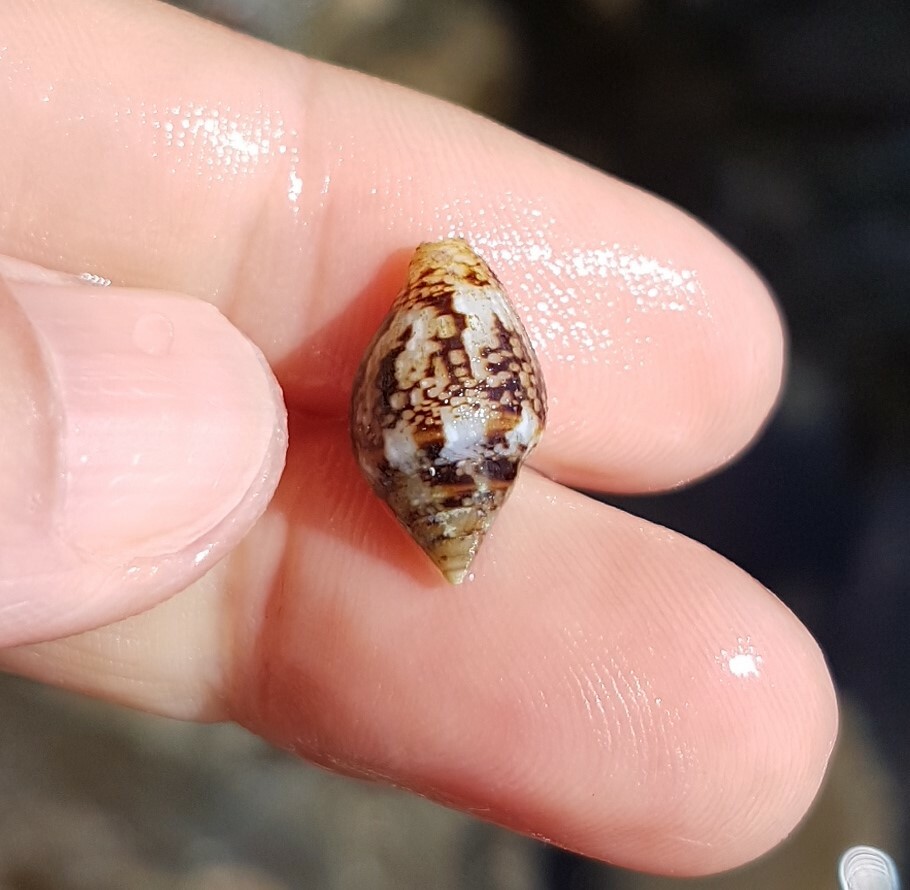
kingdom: Animalia
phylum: Mollusca
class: Gastropoda
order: Neogastropoda
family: Columbellidae
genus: Columbella
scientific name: Columbella rustica
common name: Rustic dove shell
